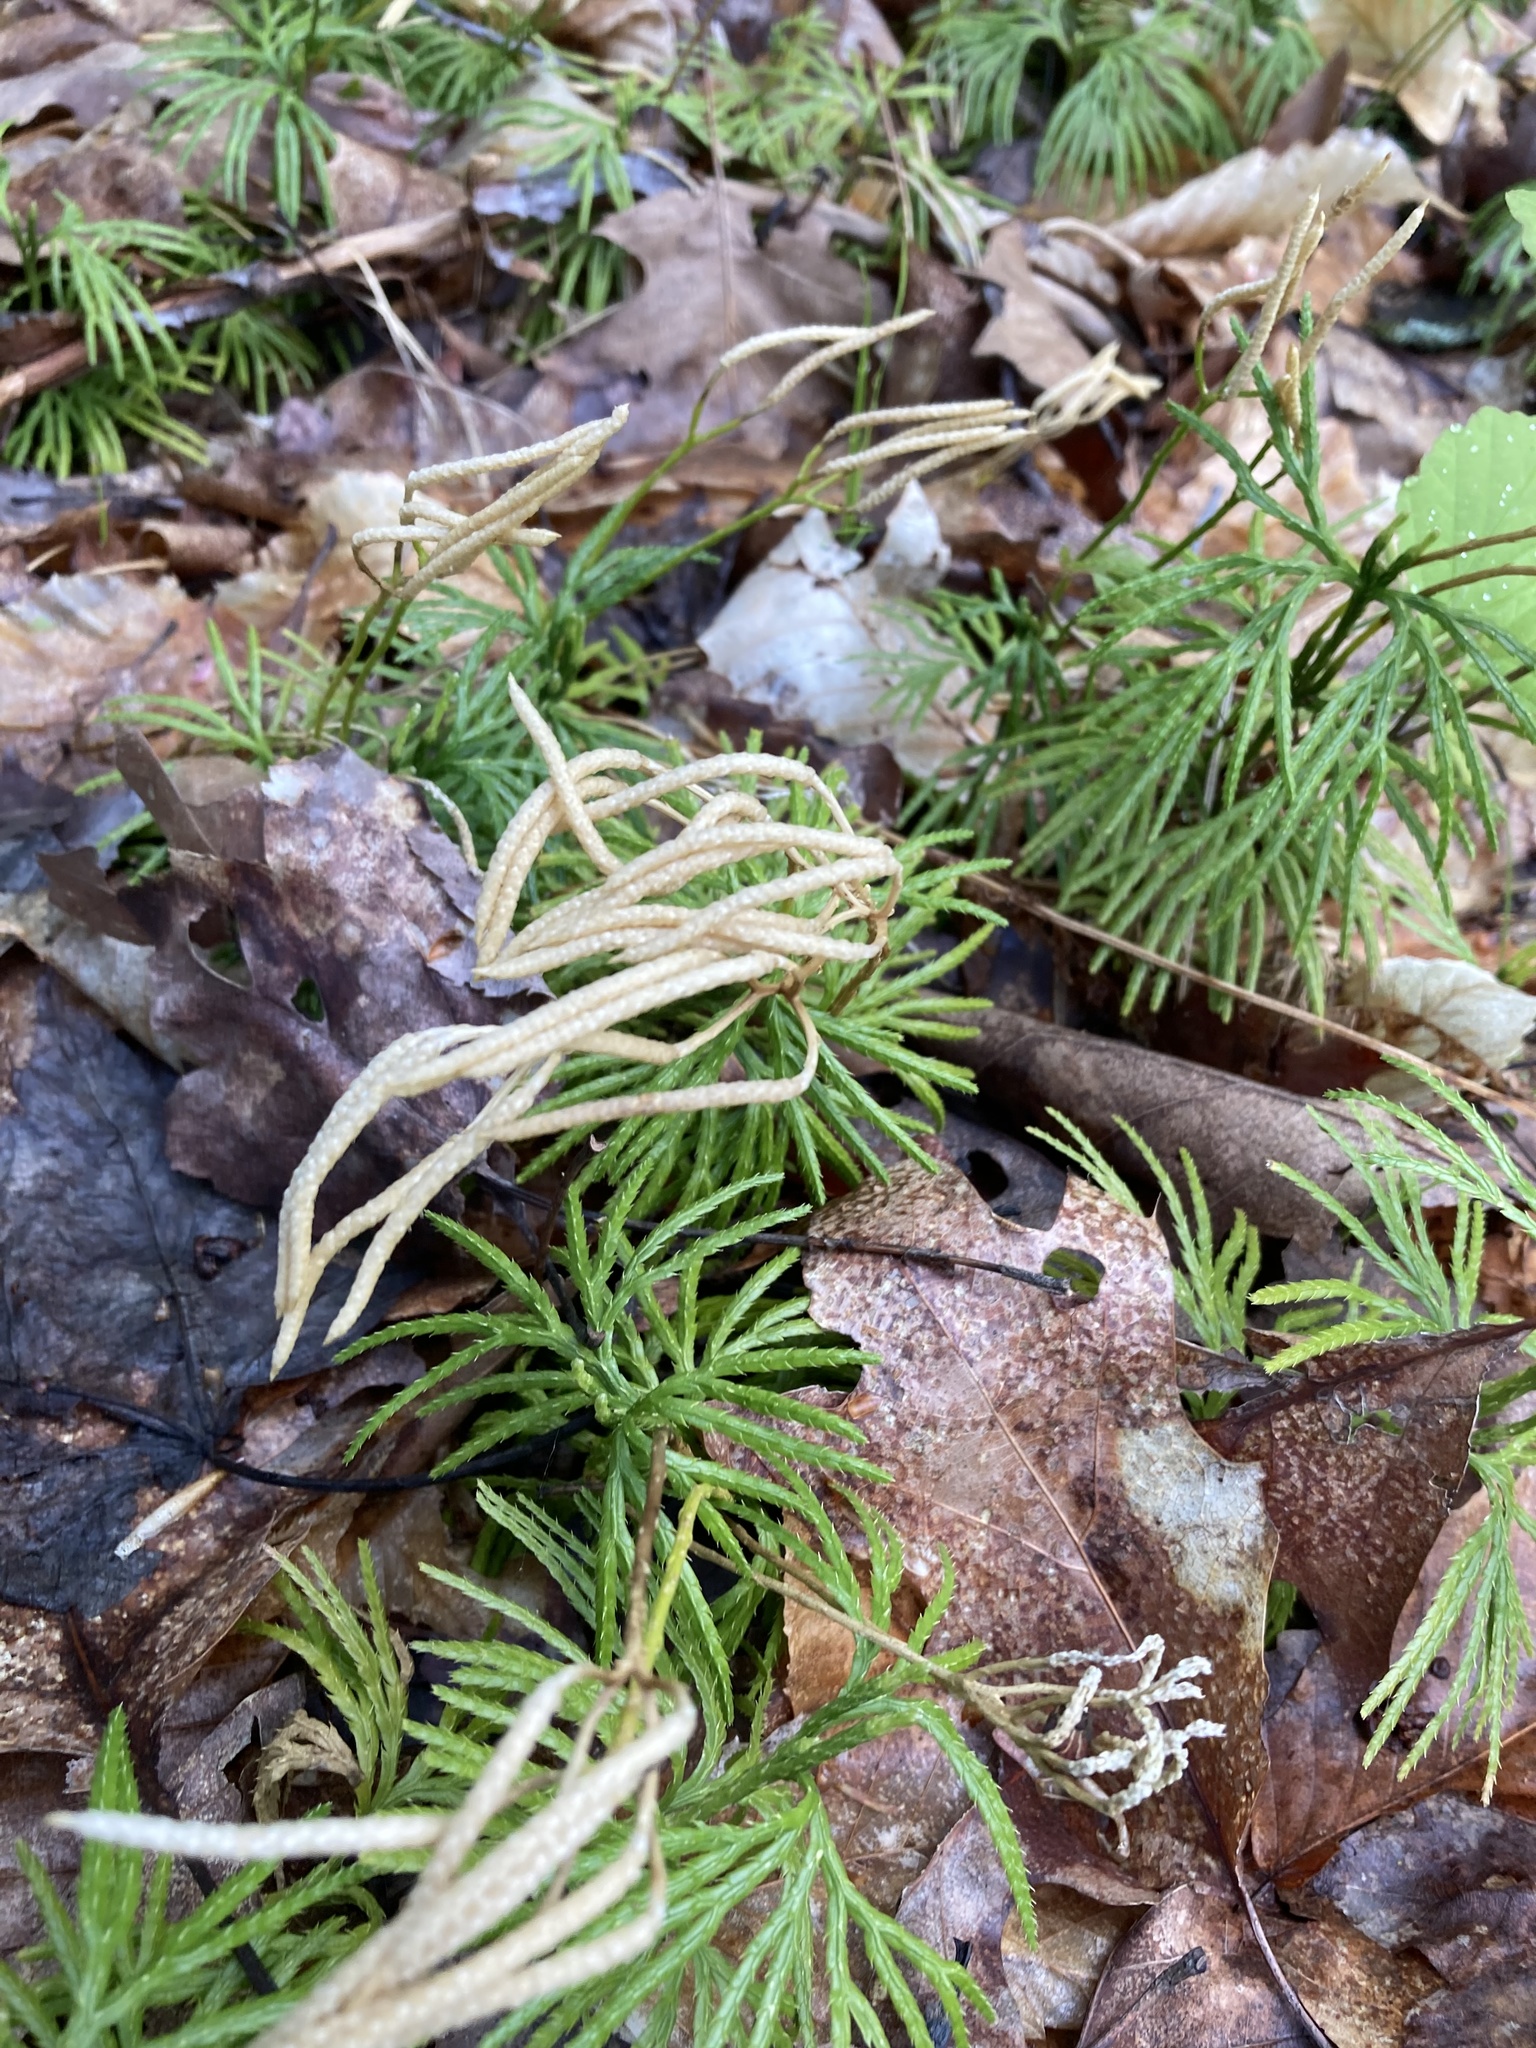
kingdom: Plantae
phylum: Tracheophyta
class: Lycopodiopsida
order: Lycopodiales
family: Lycopodiaceae
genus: Diphasiastrum
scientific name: Diphasiastrum digitatum
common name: Southern running-pine
